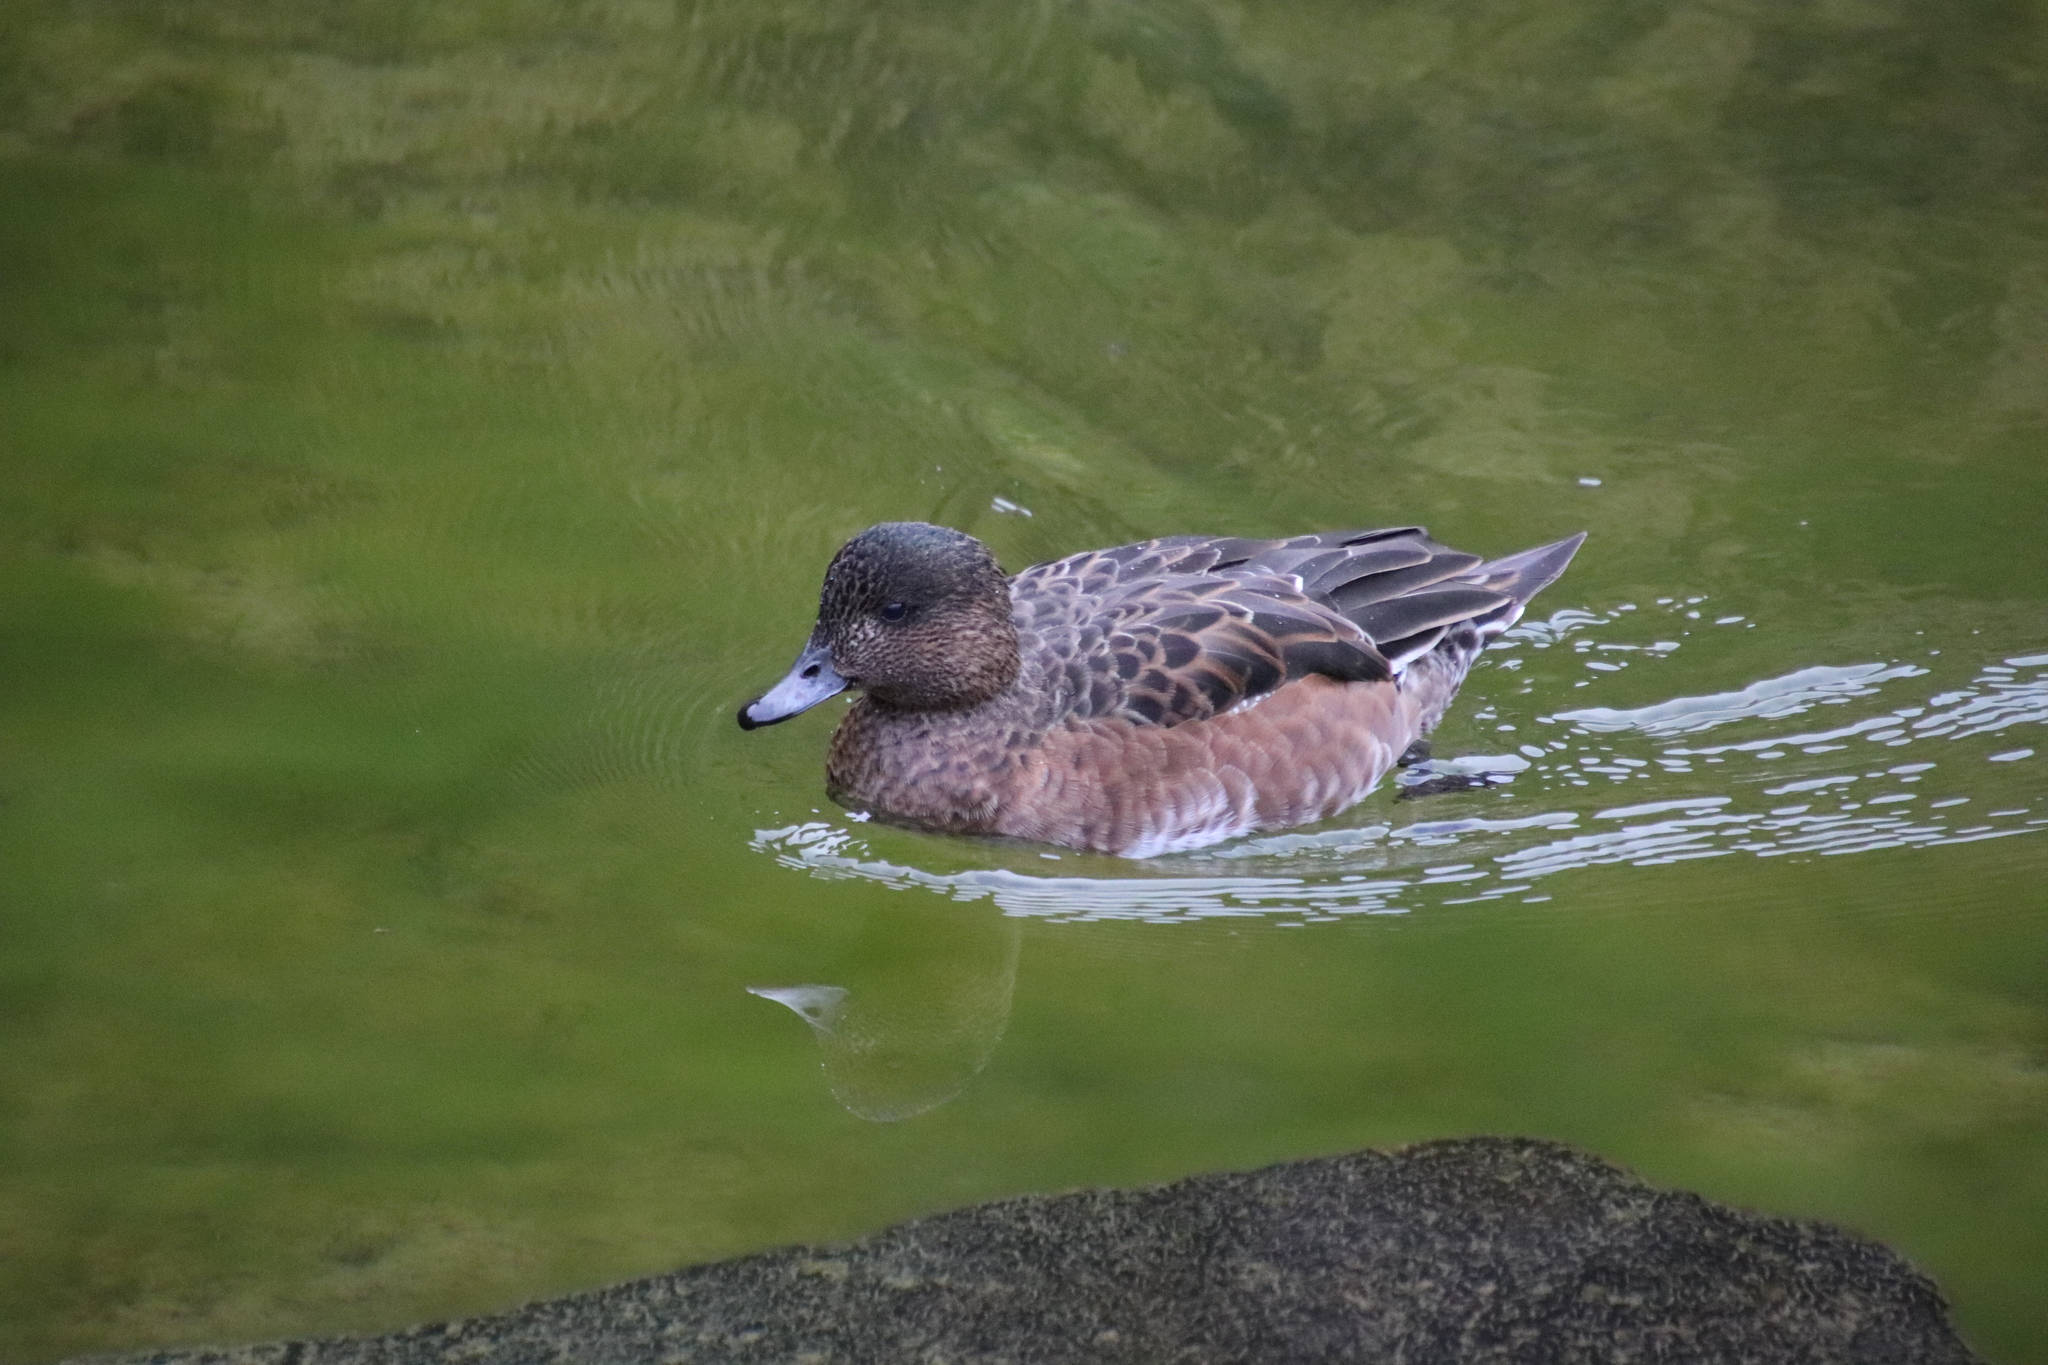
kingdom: Animalia
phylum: Chordata
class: Aves
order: Anseriformes
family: Anatidae
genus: Mareca
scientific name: Mareca penelope
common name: Eurasian wigeon
